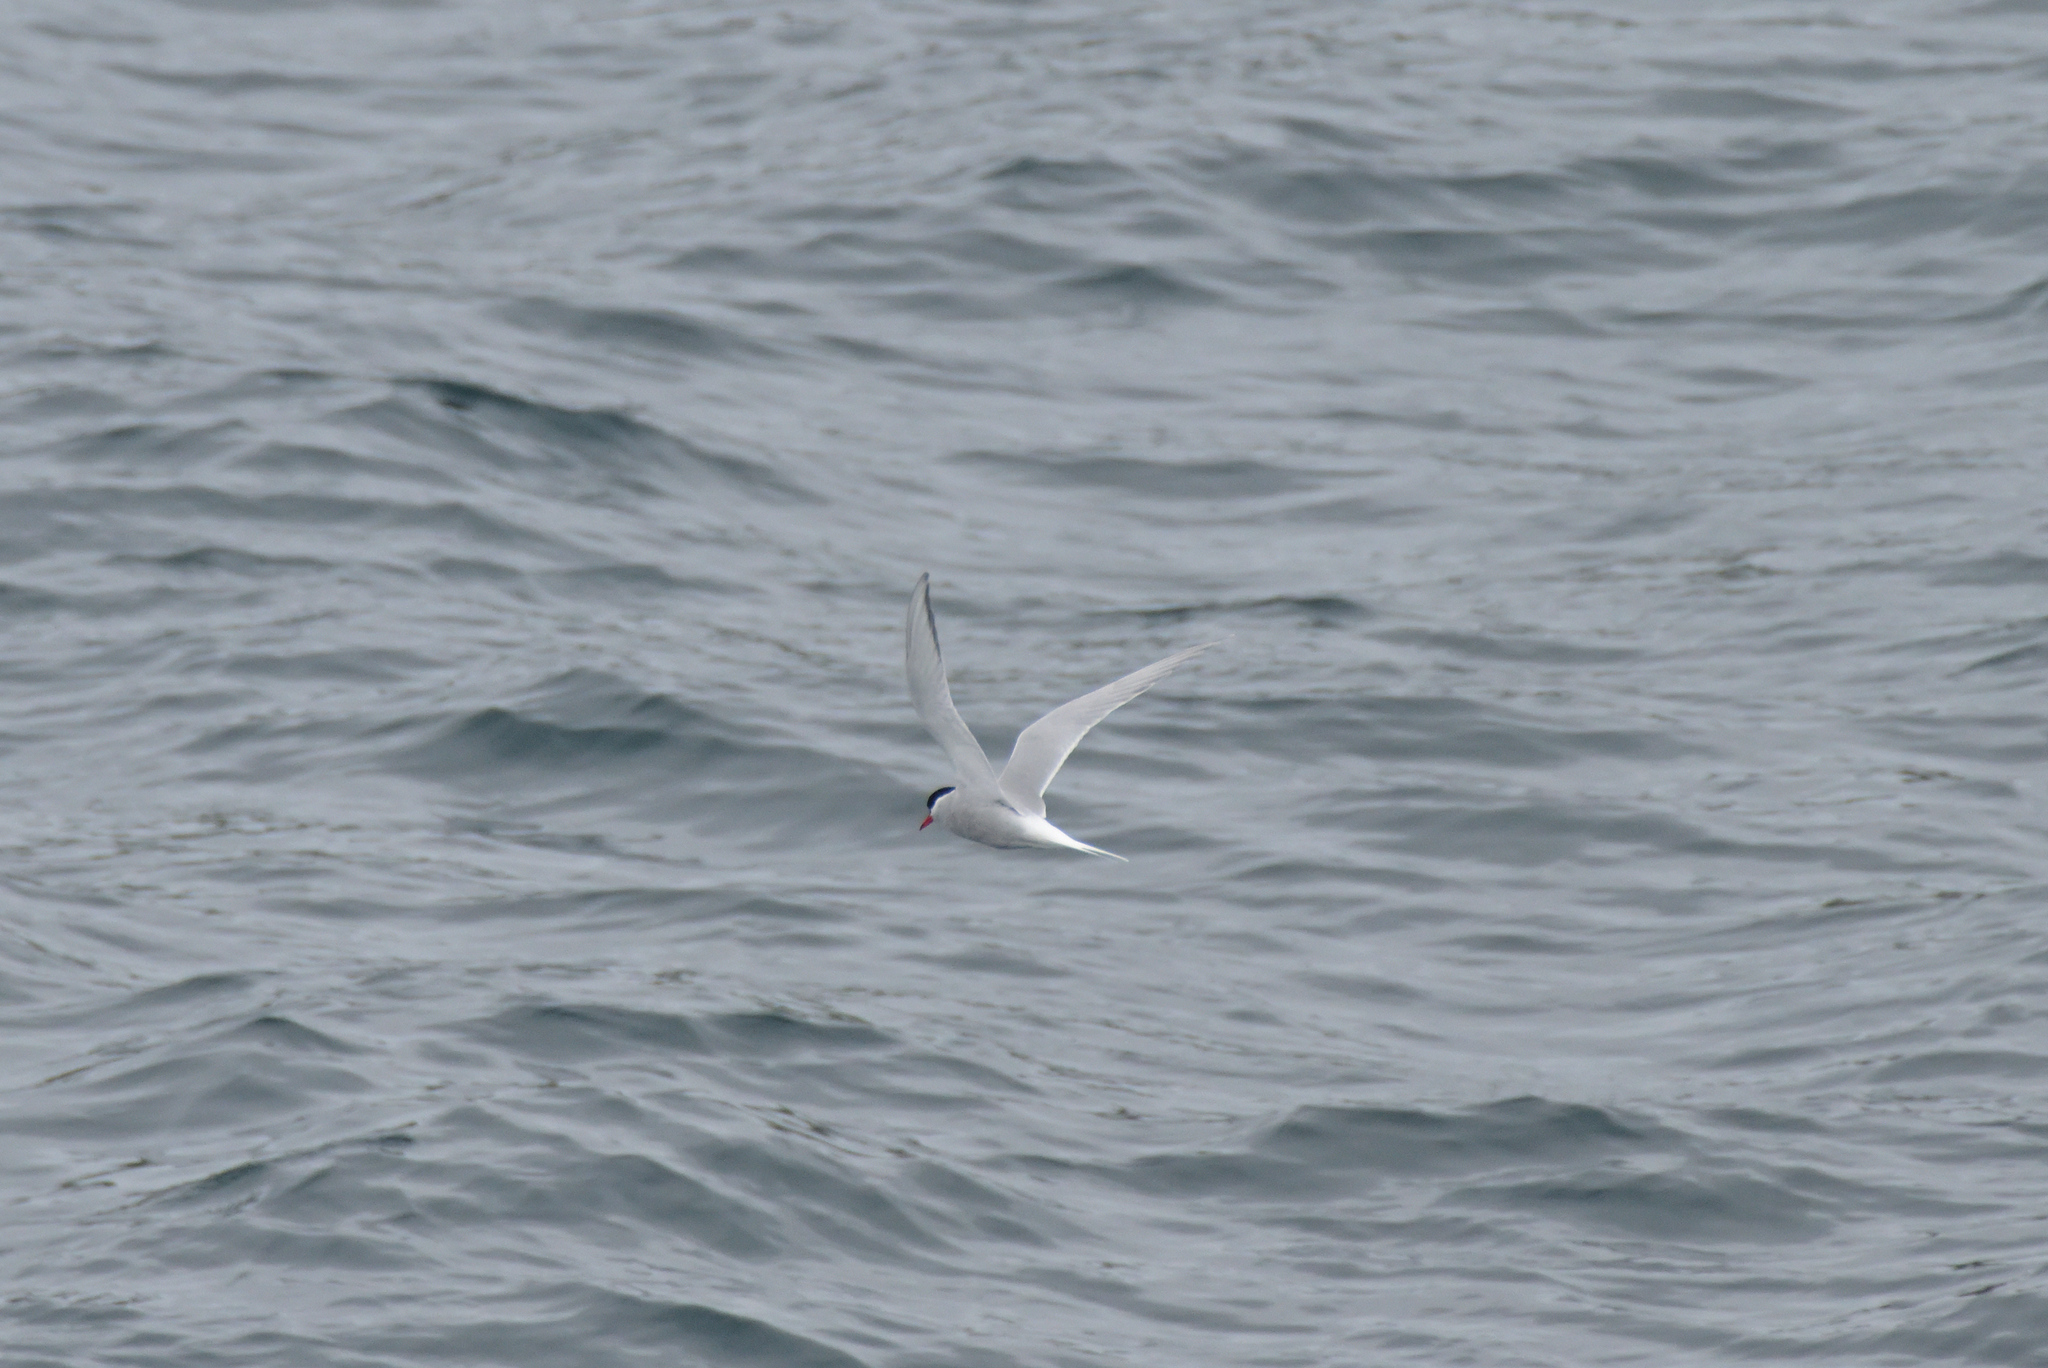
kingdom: Animalia
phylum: Chordata
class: Aves
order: Charadriiformes
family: Laridae
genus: Sterna
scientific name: Sterna vittata
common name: Antarctic tern
